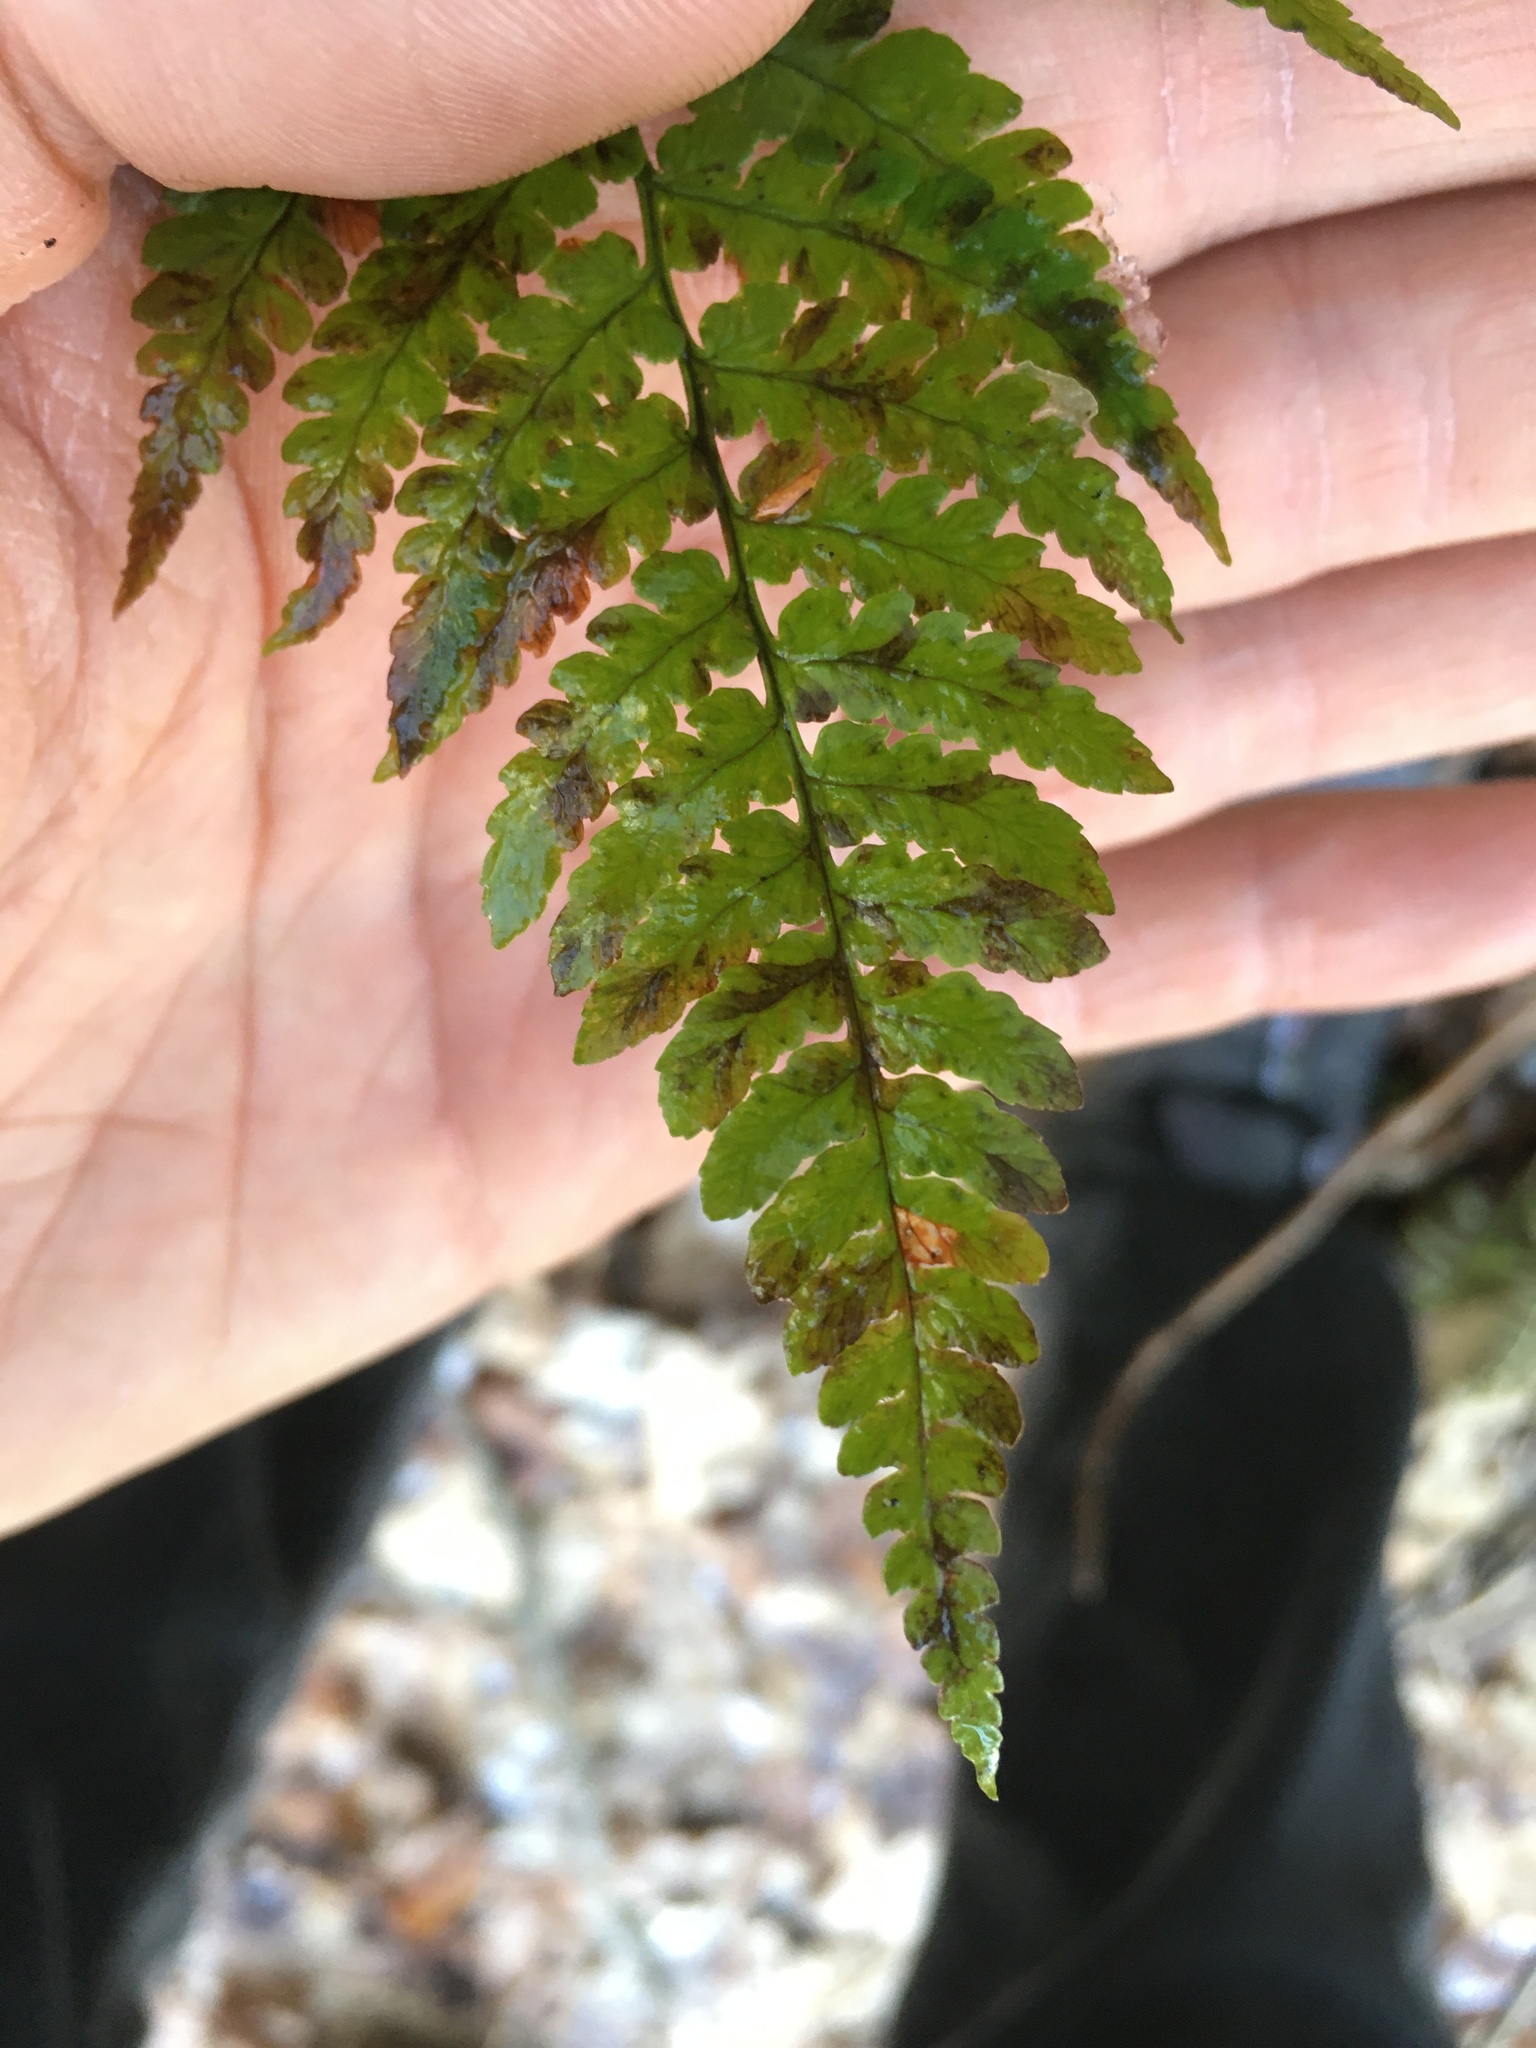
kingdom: Plantae
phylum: Tracheophyta
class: Polypodiopsida
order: Polypodiales
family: Dryopteridaceae
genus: Dryopteris
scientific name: Dryopteris marginalis
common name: Marginal wood fern
